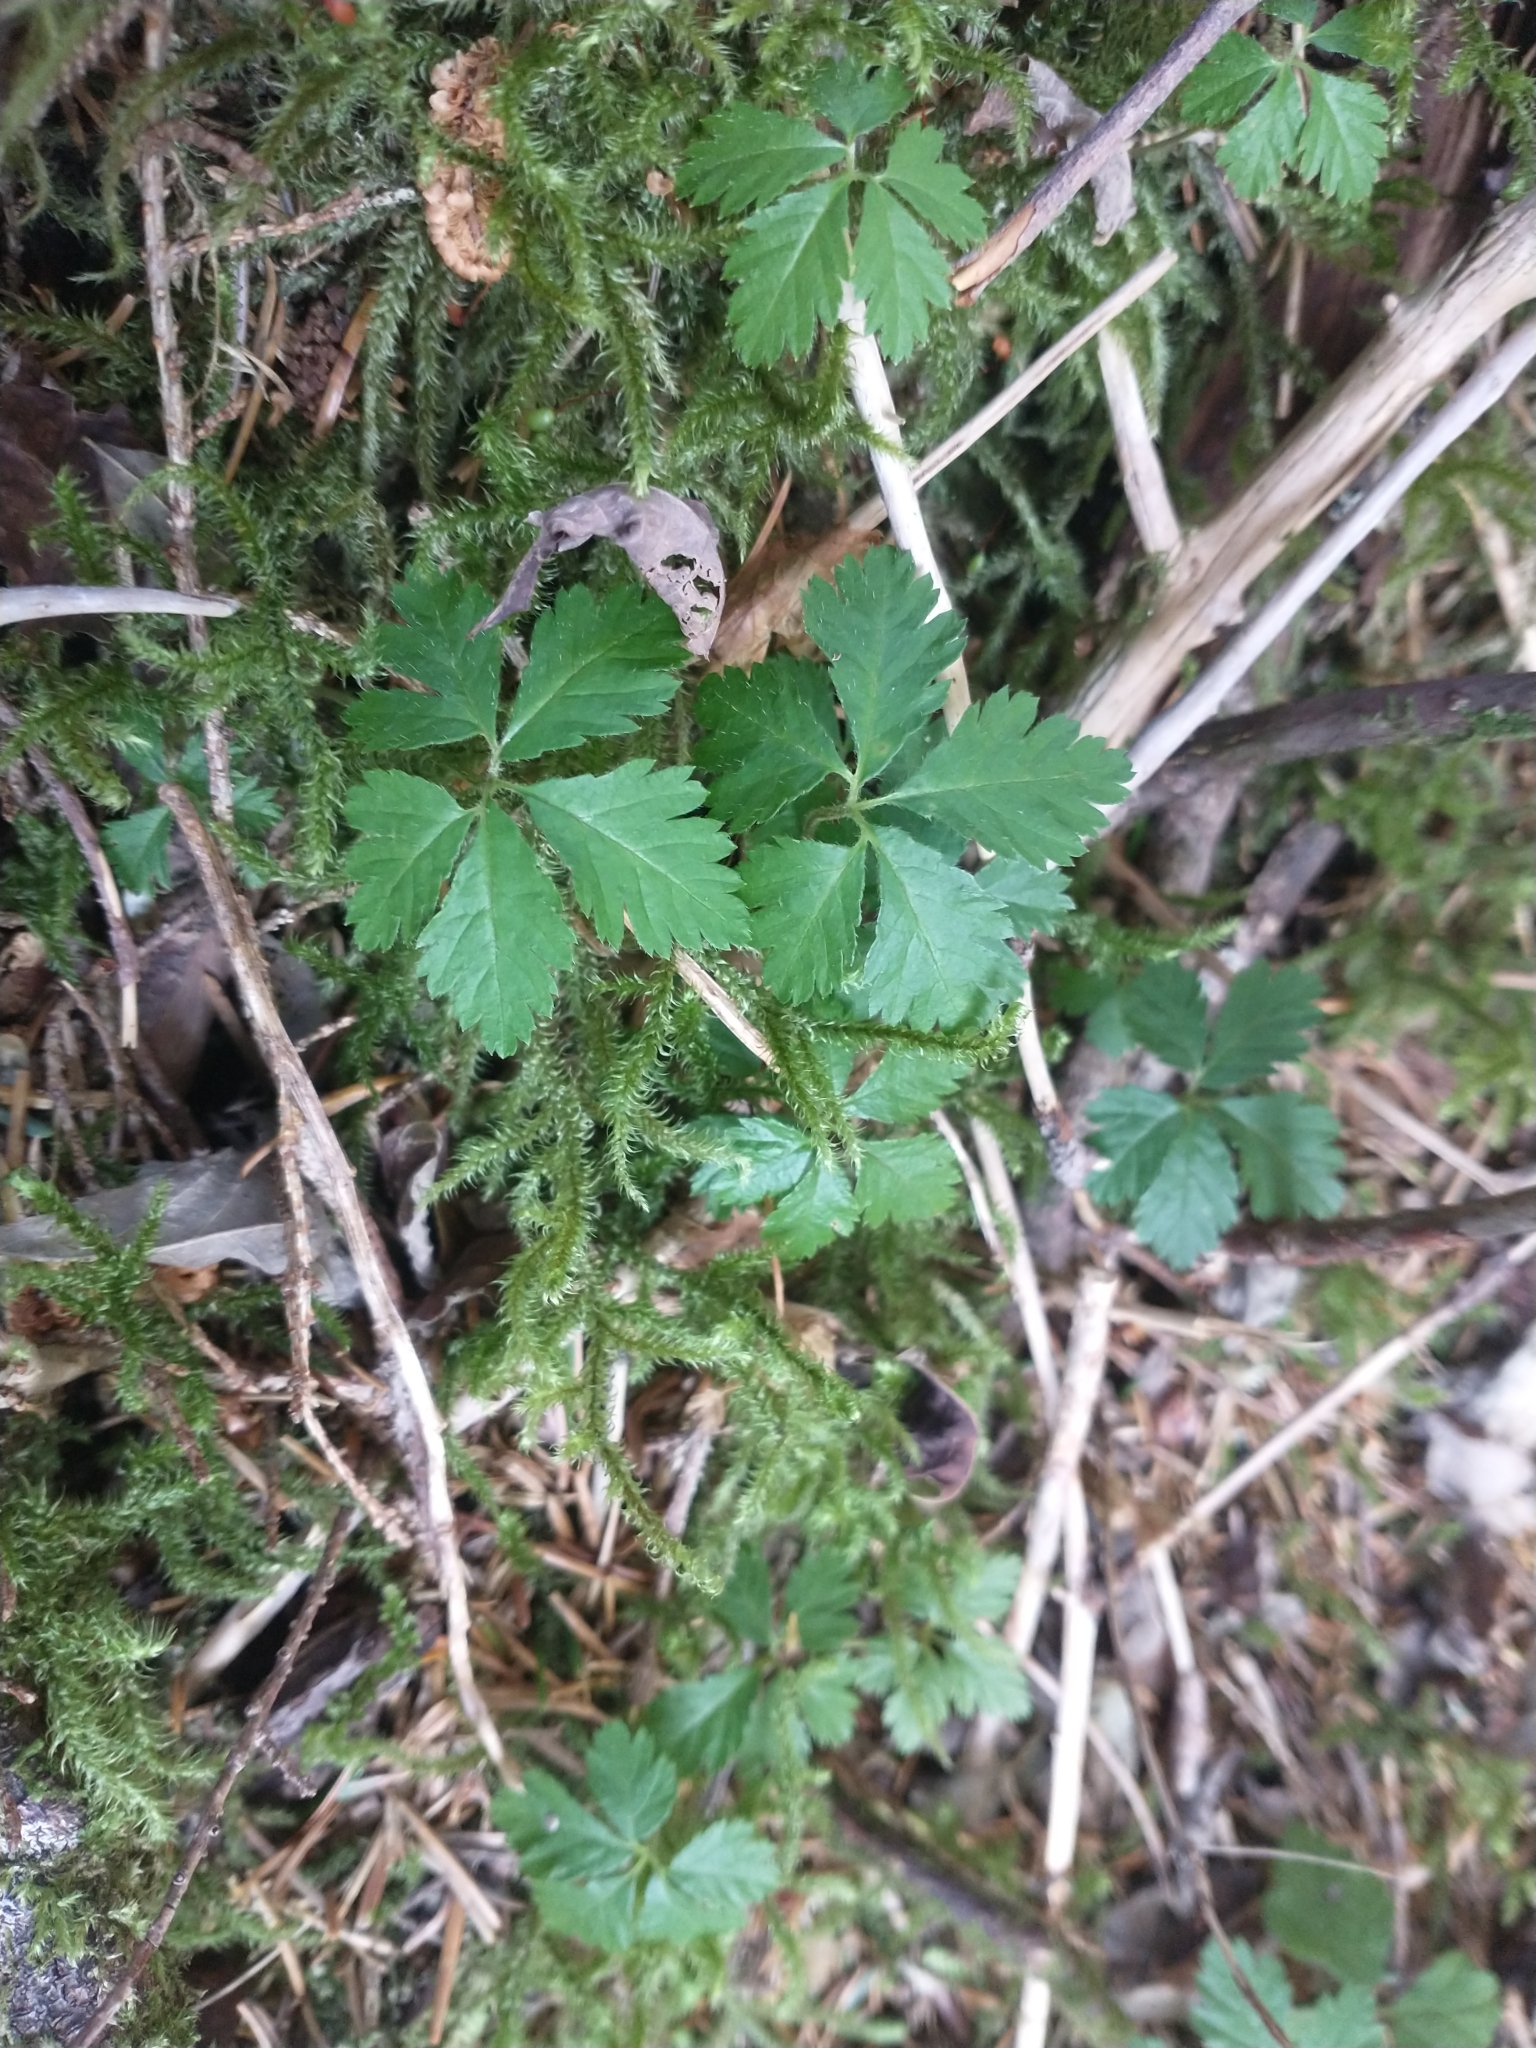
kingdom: Plantae
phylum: Tracheophyta
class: Magnoliopsida
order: Rosales
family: Rosaceae
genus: Rubus
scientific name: Rubus pedatus
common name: Creeping raspberry
